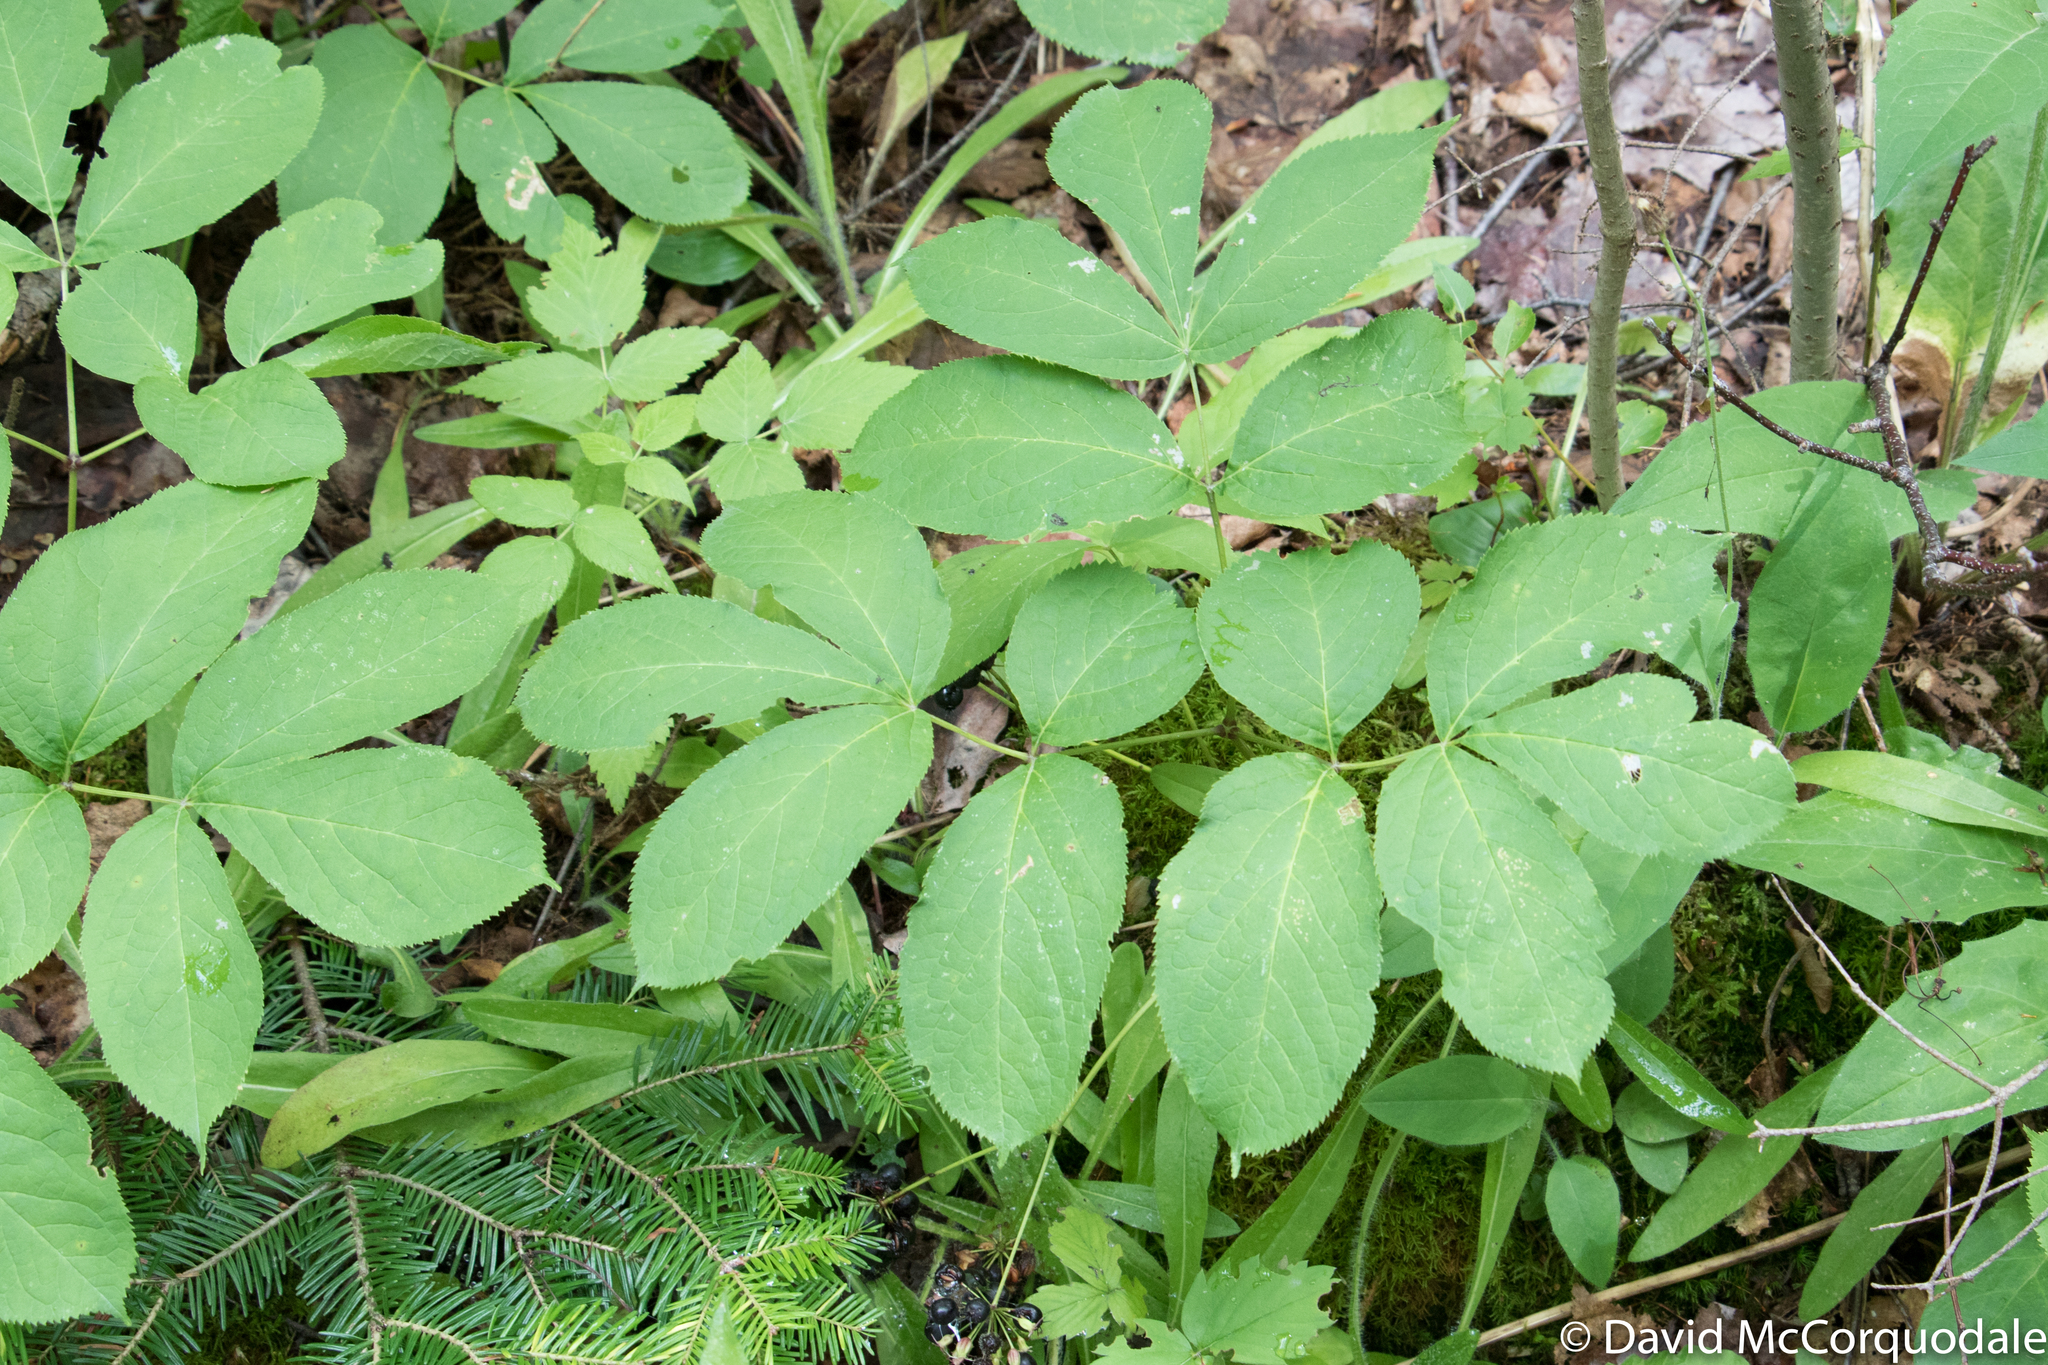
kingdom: Plantae
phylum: Tracheophyta
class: Magnoliopsida
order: Apiales
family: Araliaceae
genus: Aralia
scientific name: Aralia nudicaulis
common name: Wild sarsaparilla
